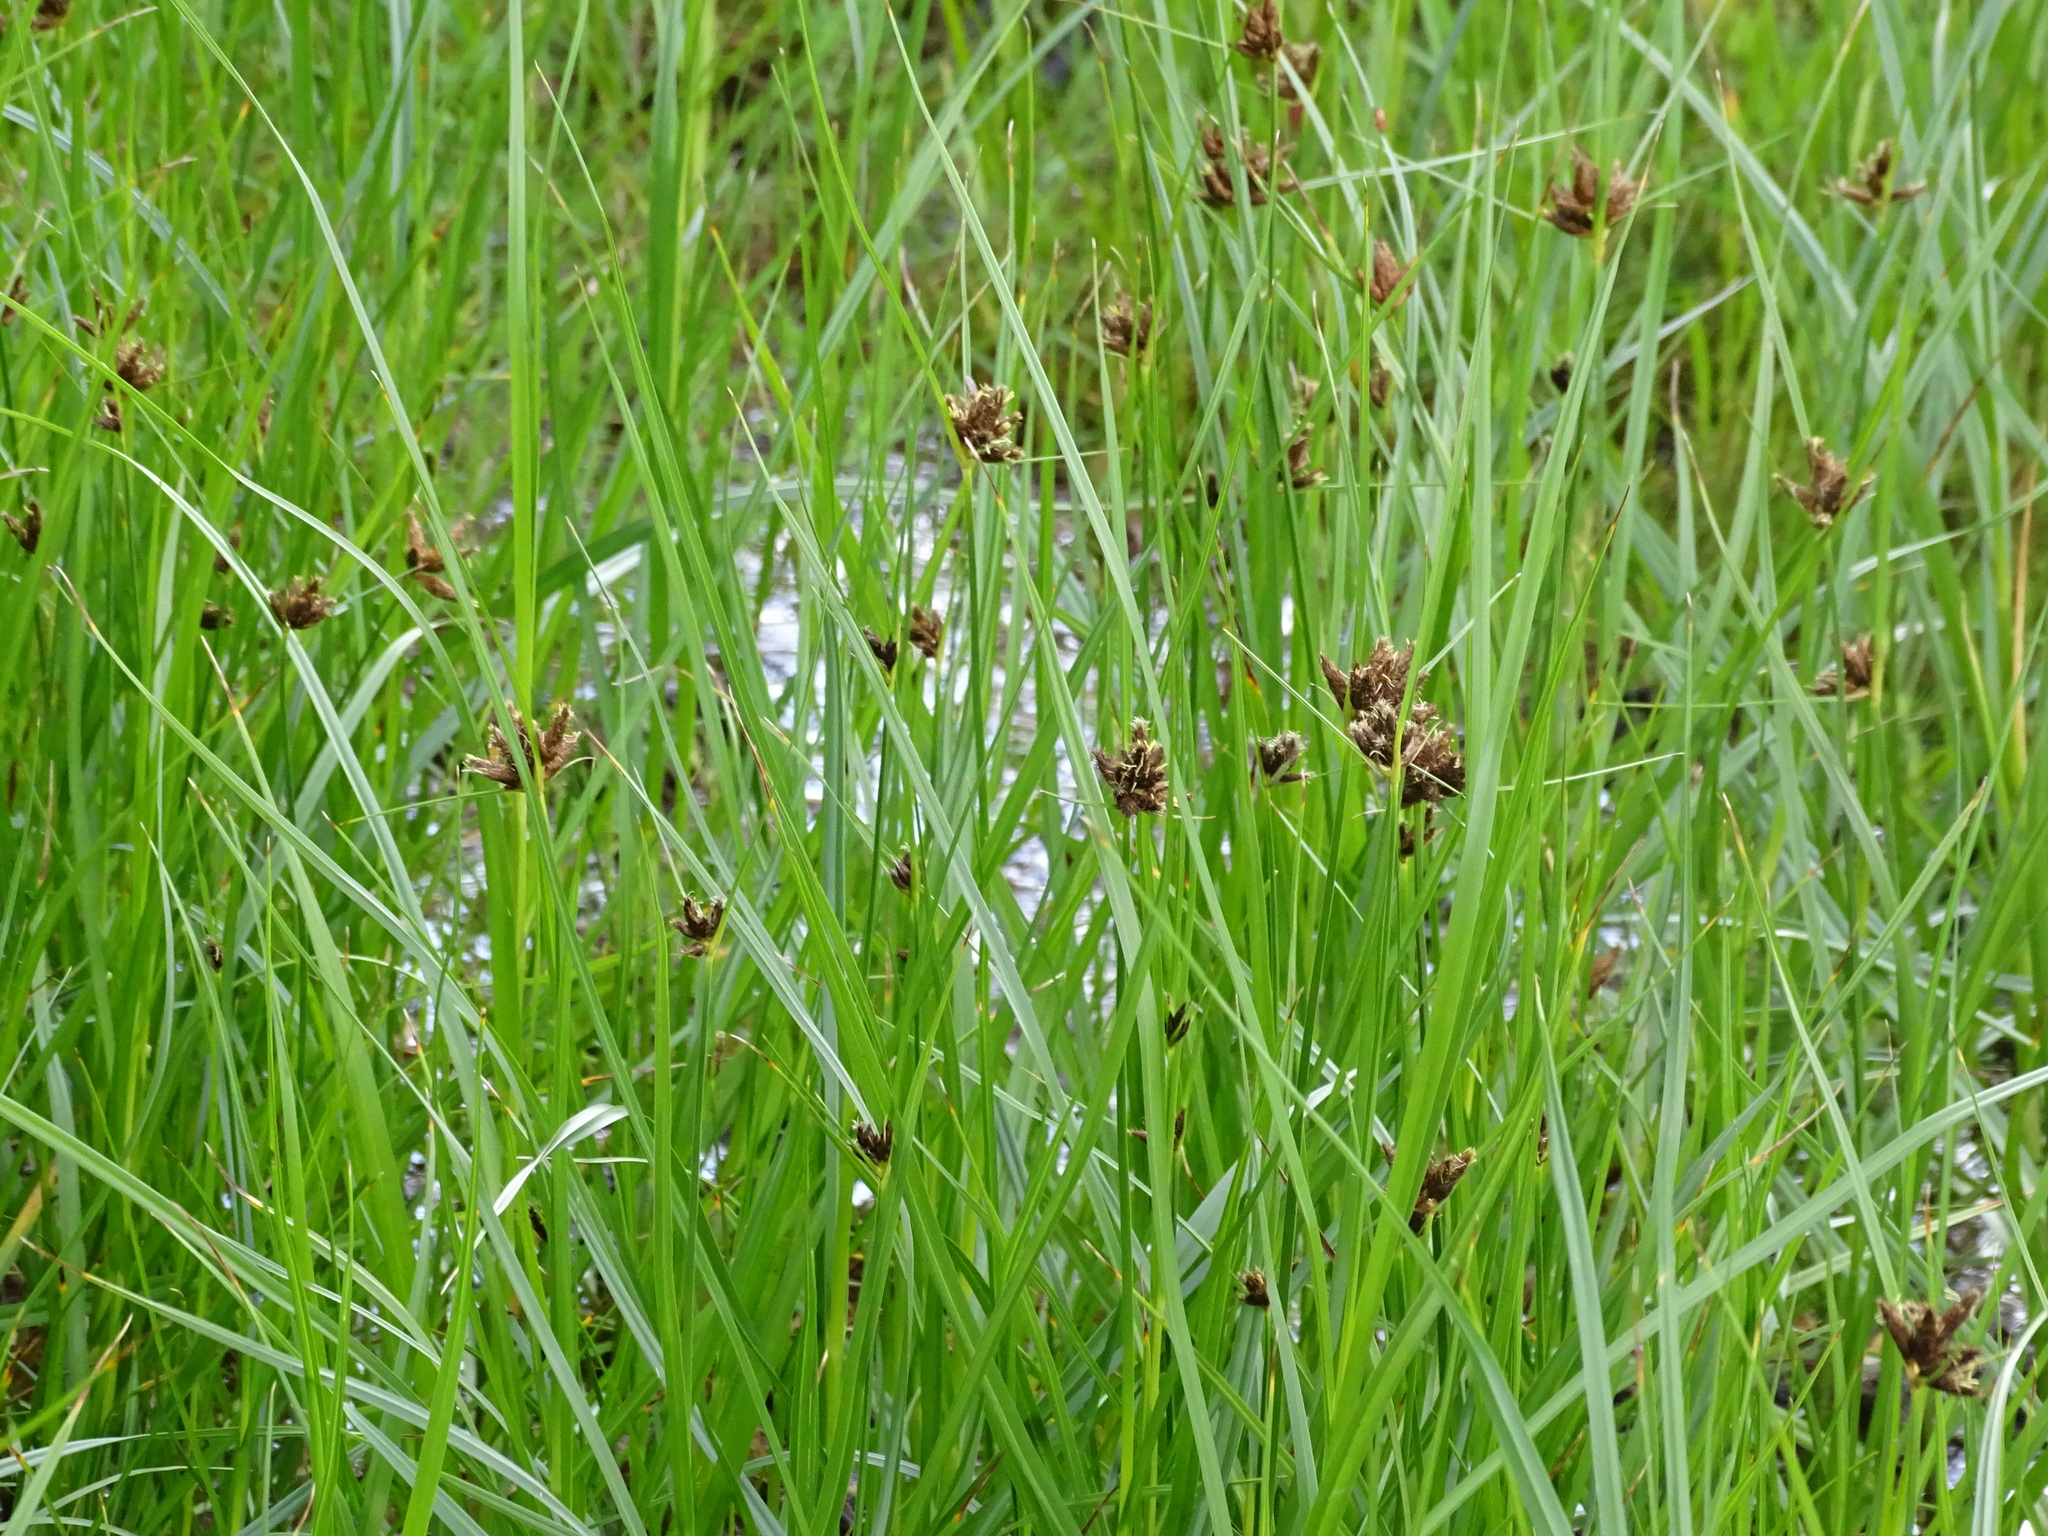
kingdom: Plantae
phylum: Tracheophyta
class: Liliopsida
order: Poales
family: Cyperaceae
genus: Bolboschoenus
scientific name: Bolboschoenus maritimus
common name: Sea club-rush
